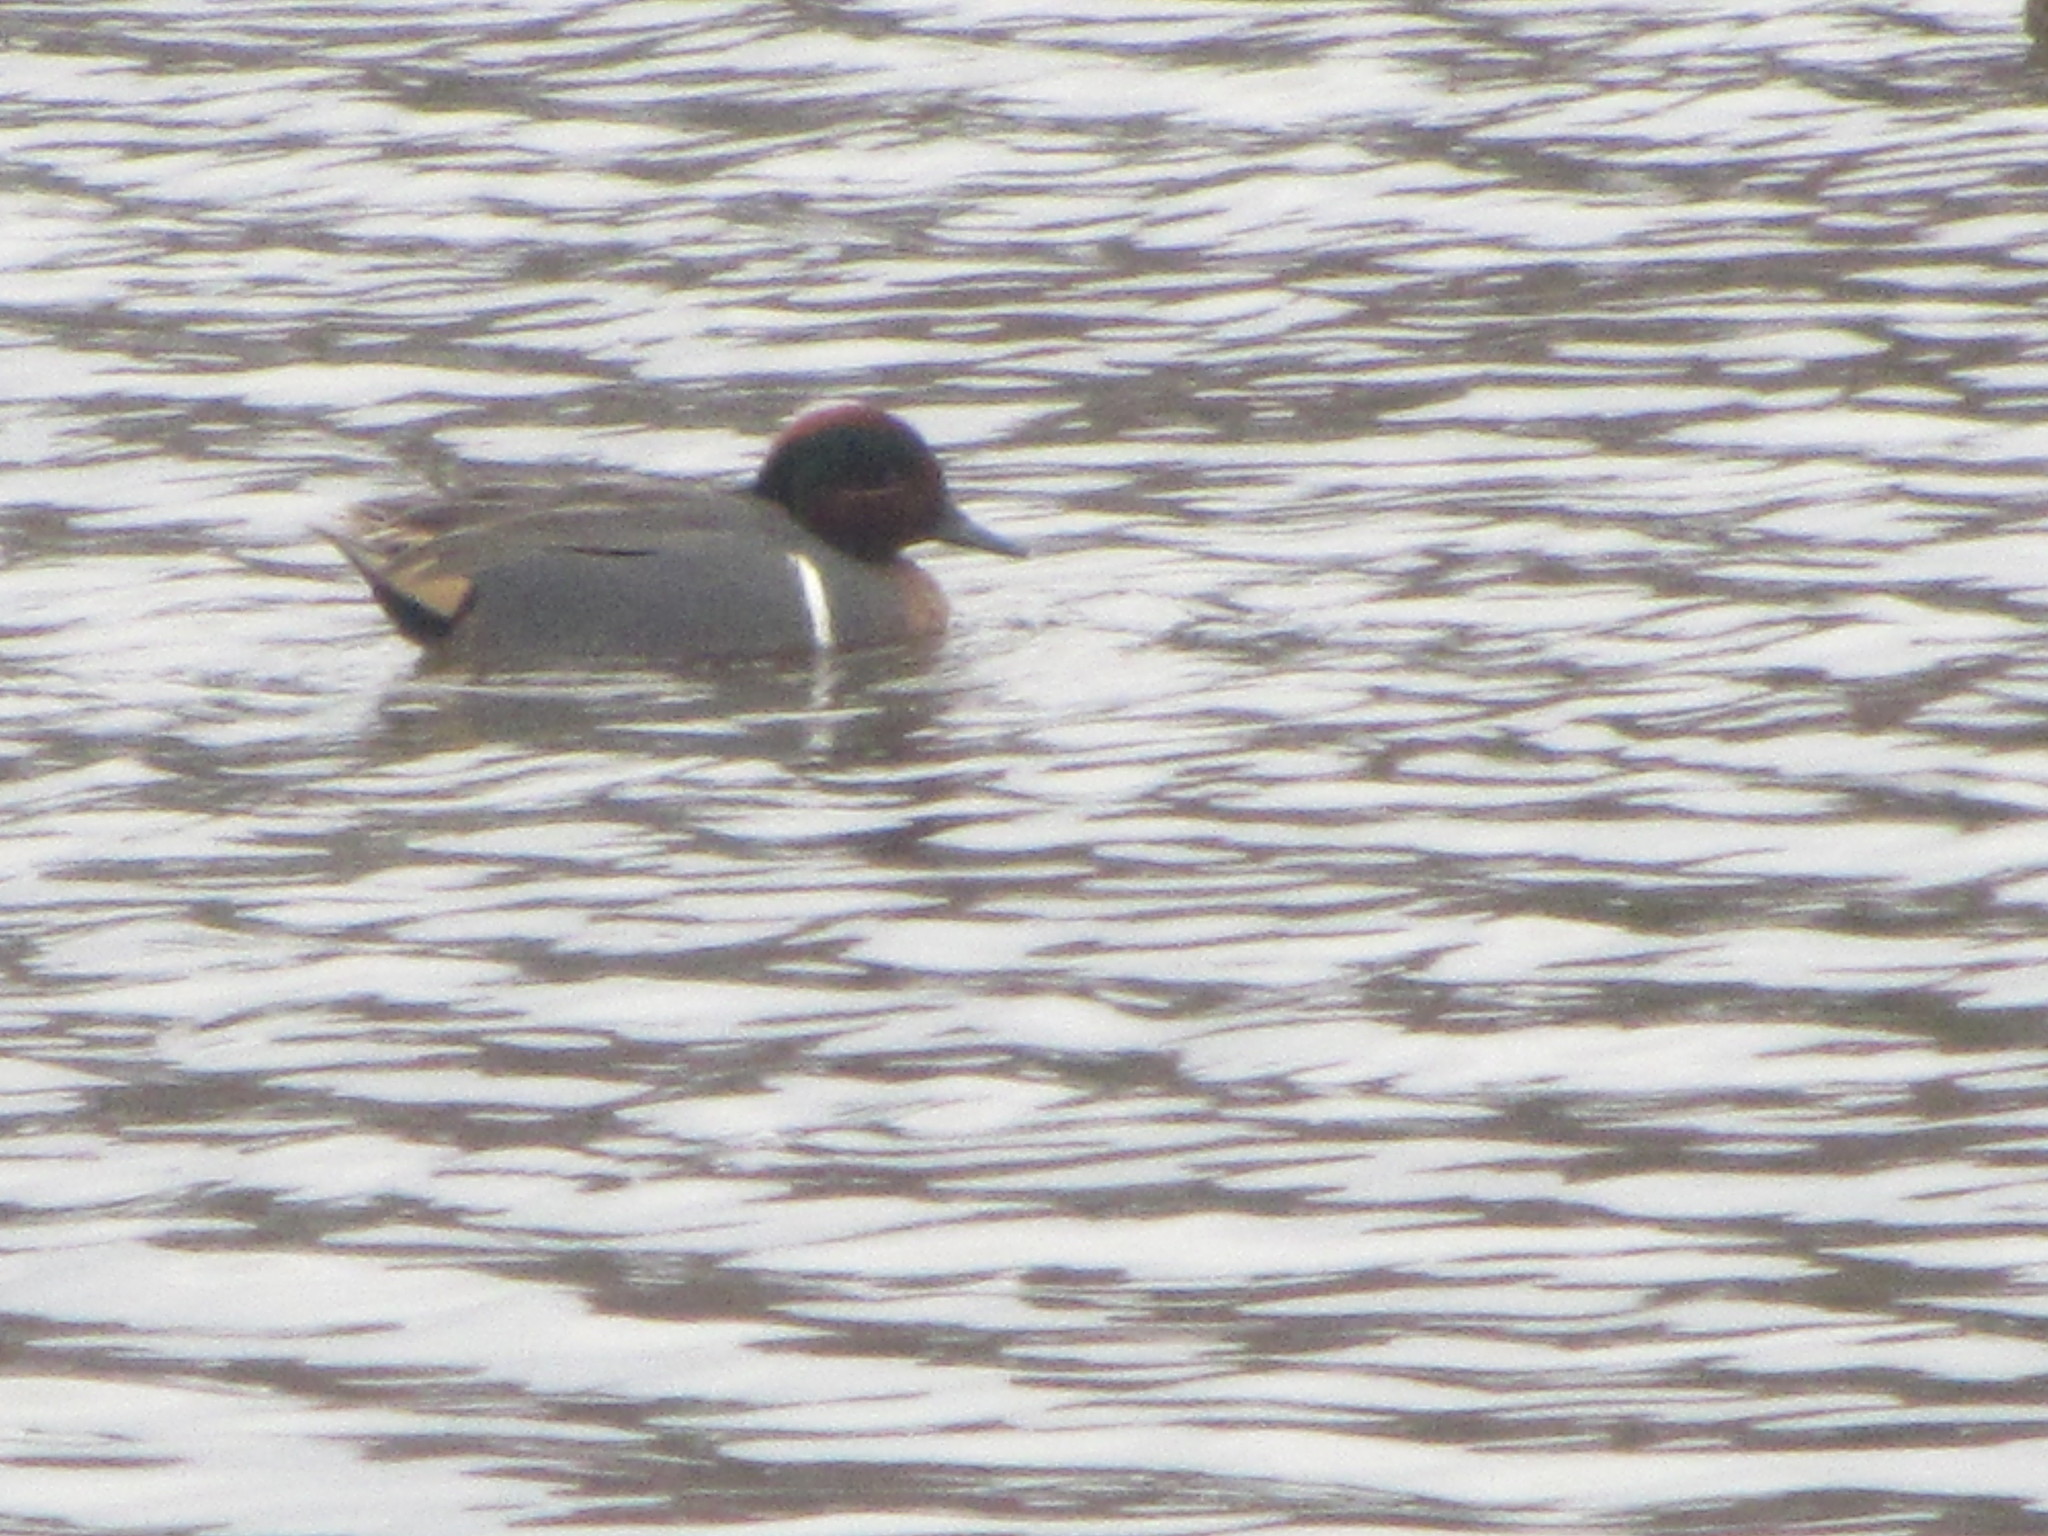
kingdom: Animalia
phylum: Chordata
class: Aves
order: Anseriformes
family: Anatidae
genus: Anas
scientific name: Anas crecca
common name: Eurasian teal
